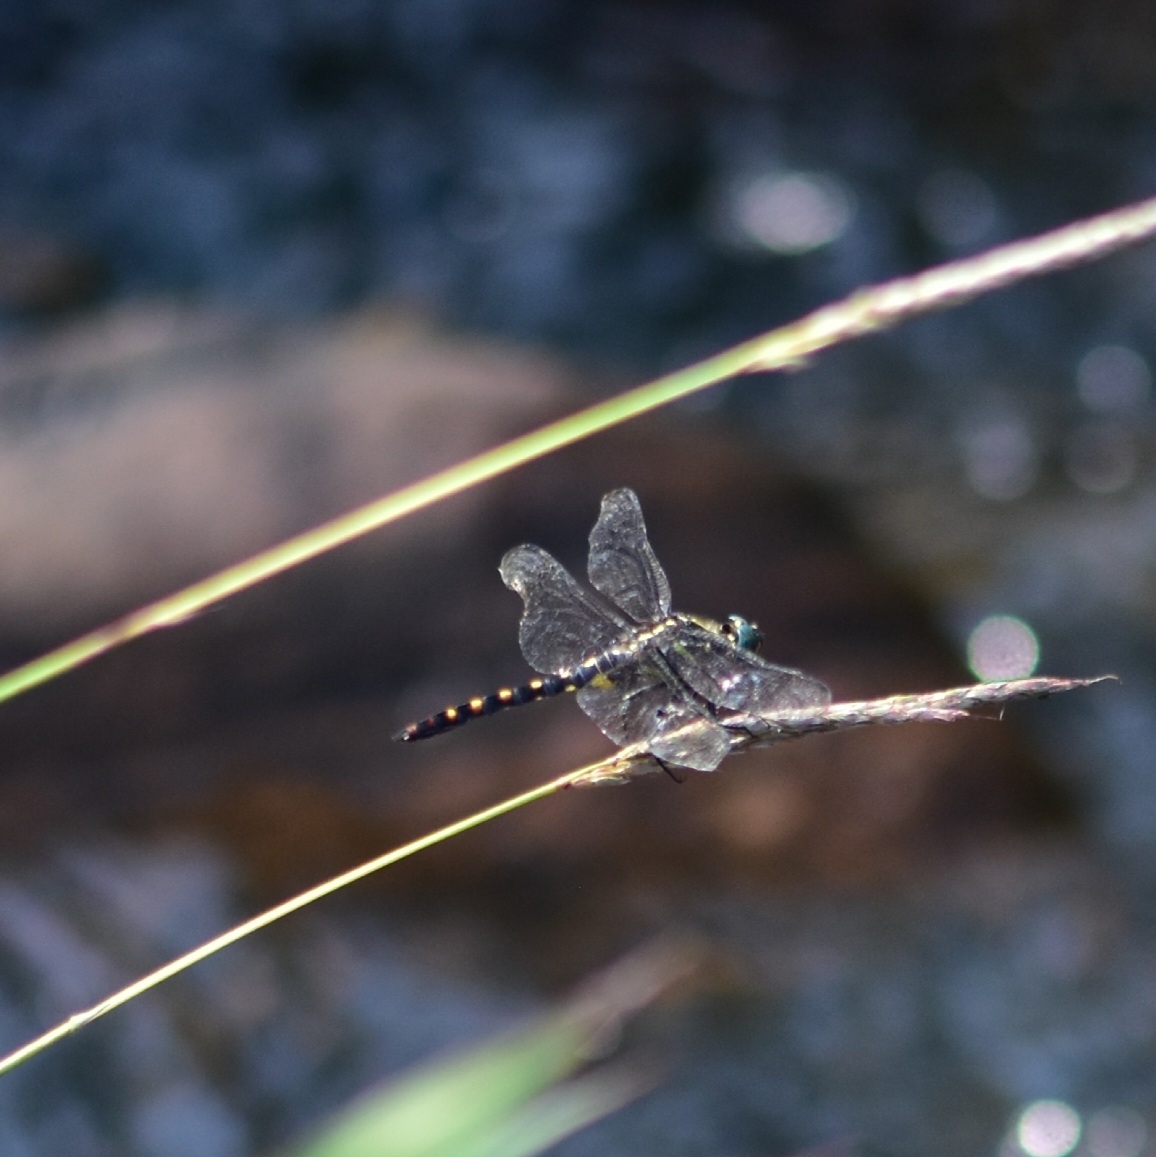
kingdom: Animalia
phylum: Arthropoda
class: Insecta
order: Odonata
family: Libellulidae
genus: Onychothemis
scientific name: Onychothemis testacea
